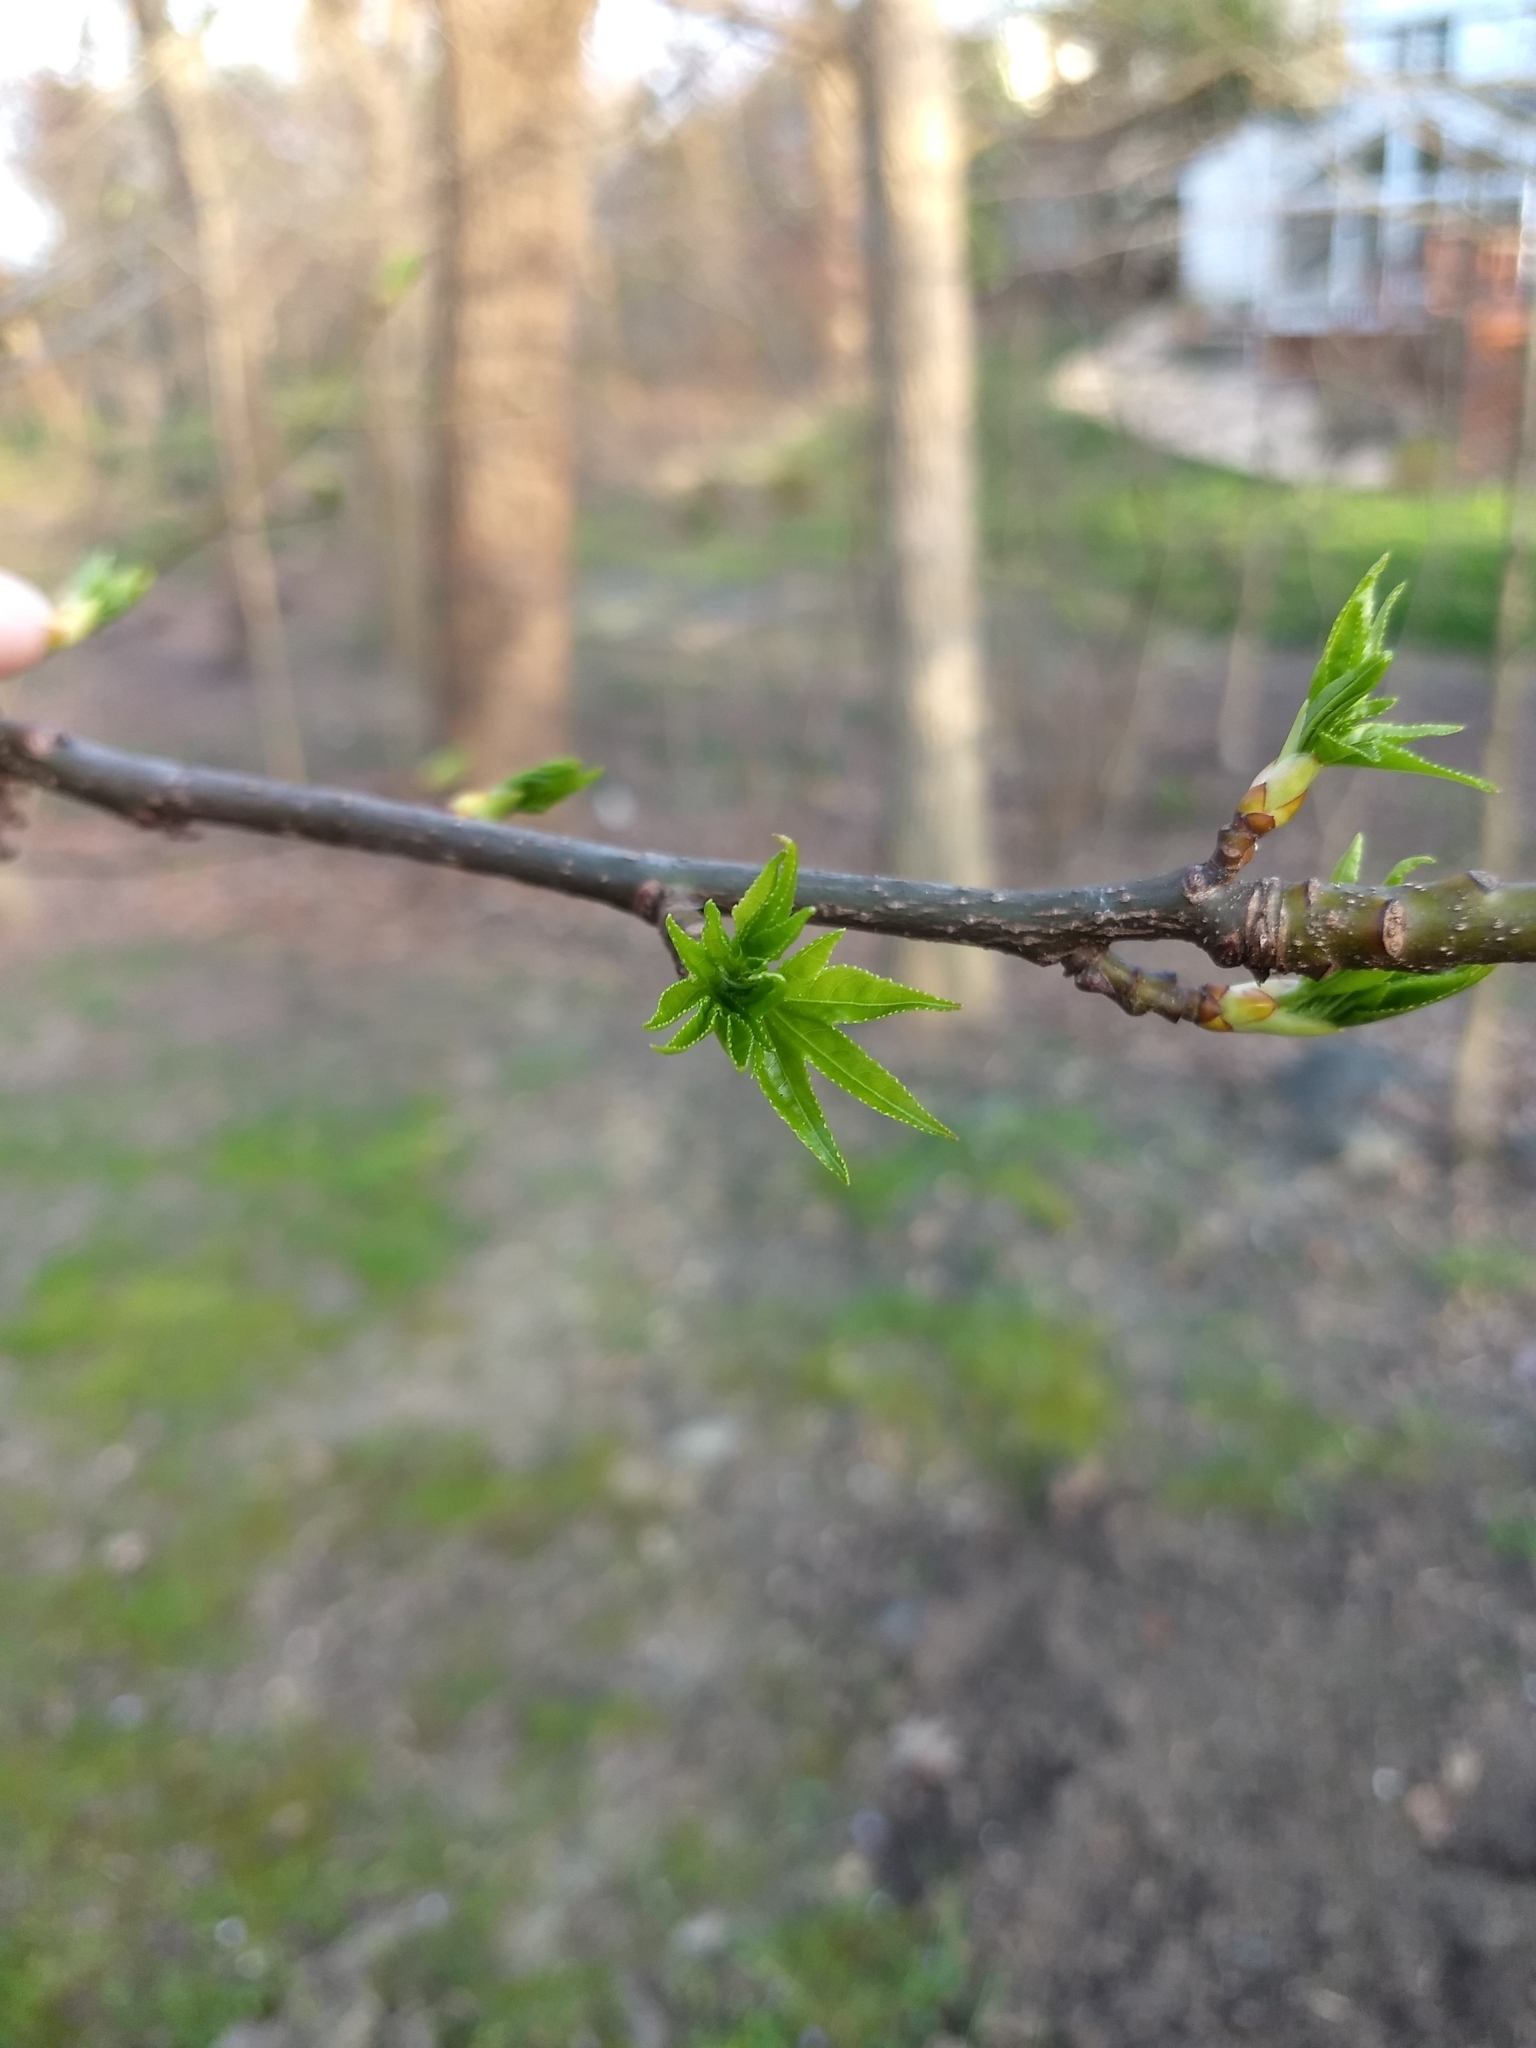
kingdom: Plantae
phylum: Tracheophyta
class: Magnoliopsida
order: Saxifragales
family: Altingiaceae
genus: Liquidambar
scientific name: Liquidambar styraciflua
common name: Sweet gum
